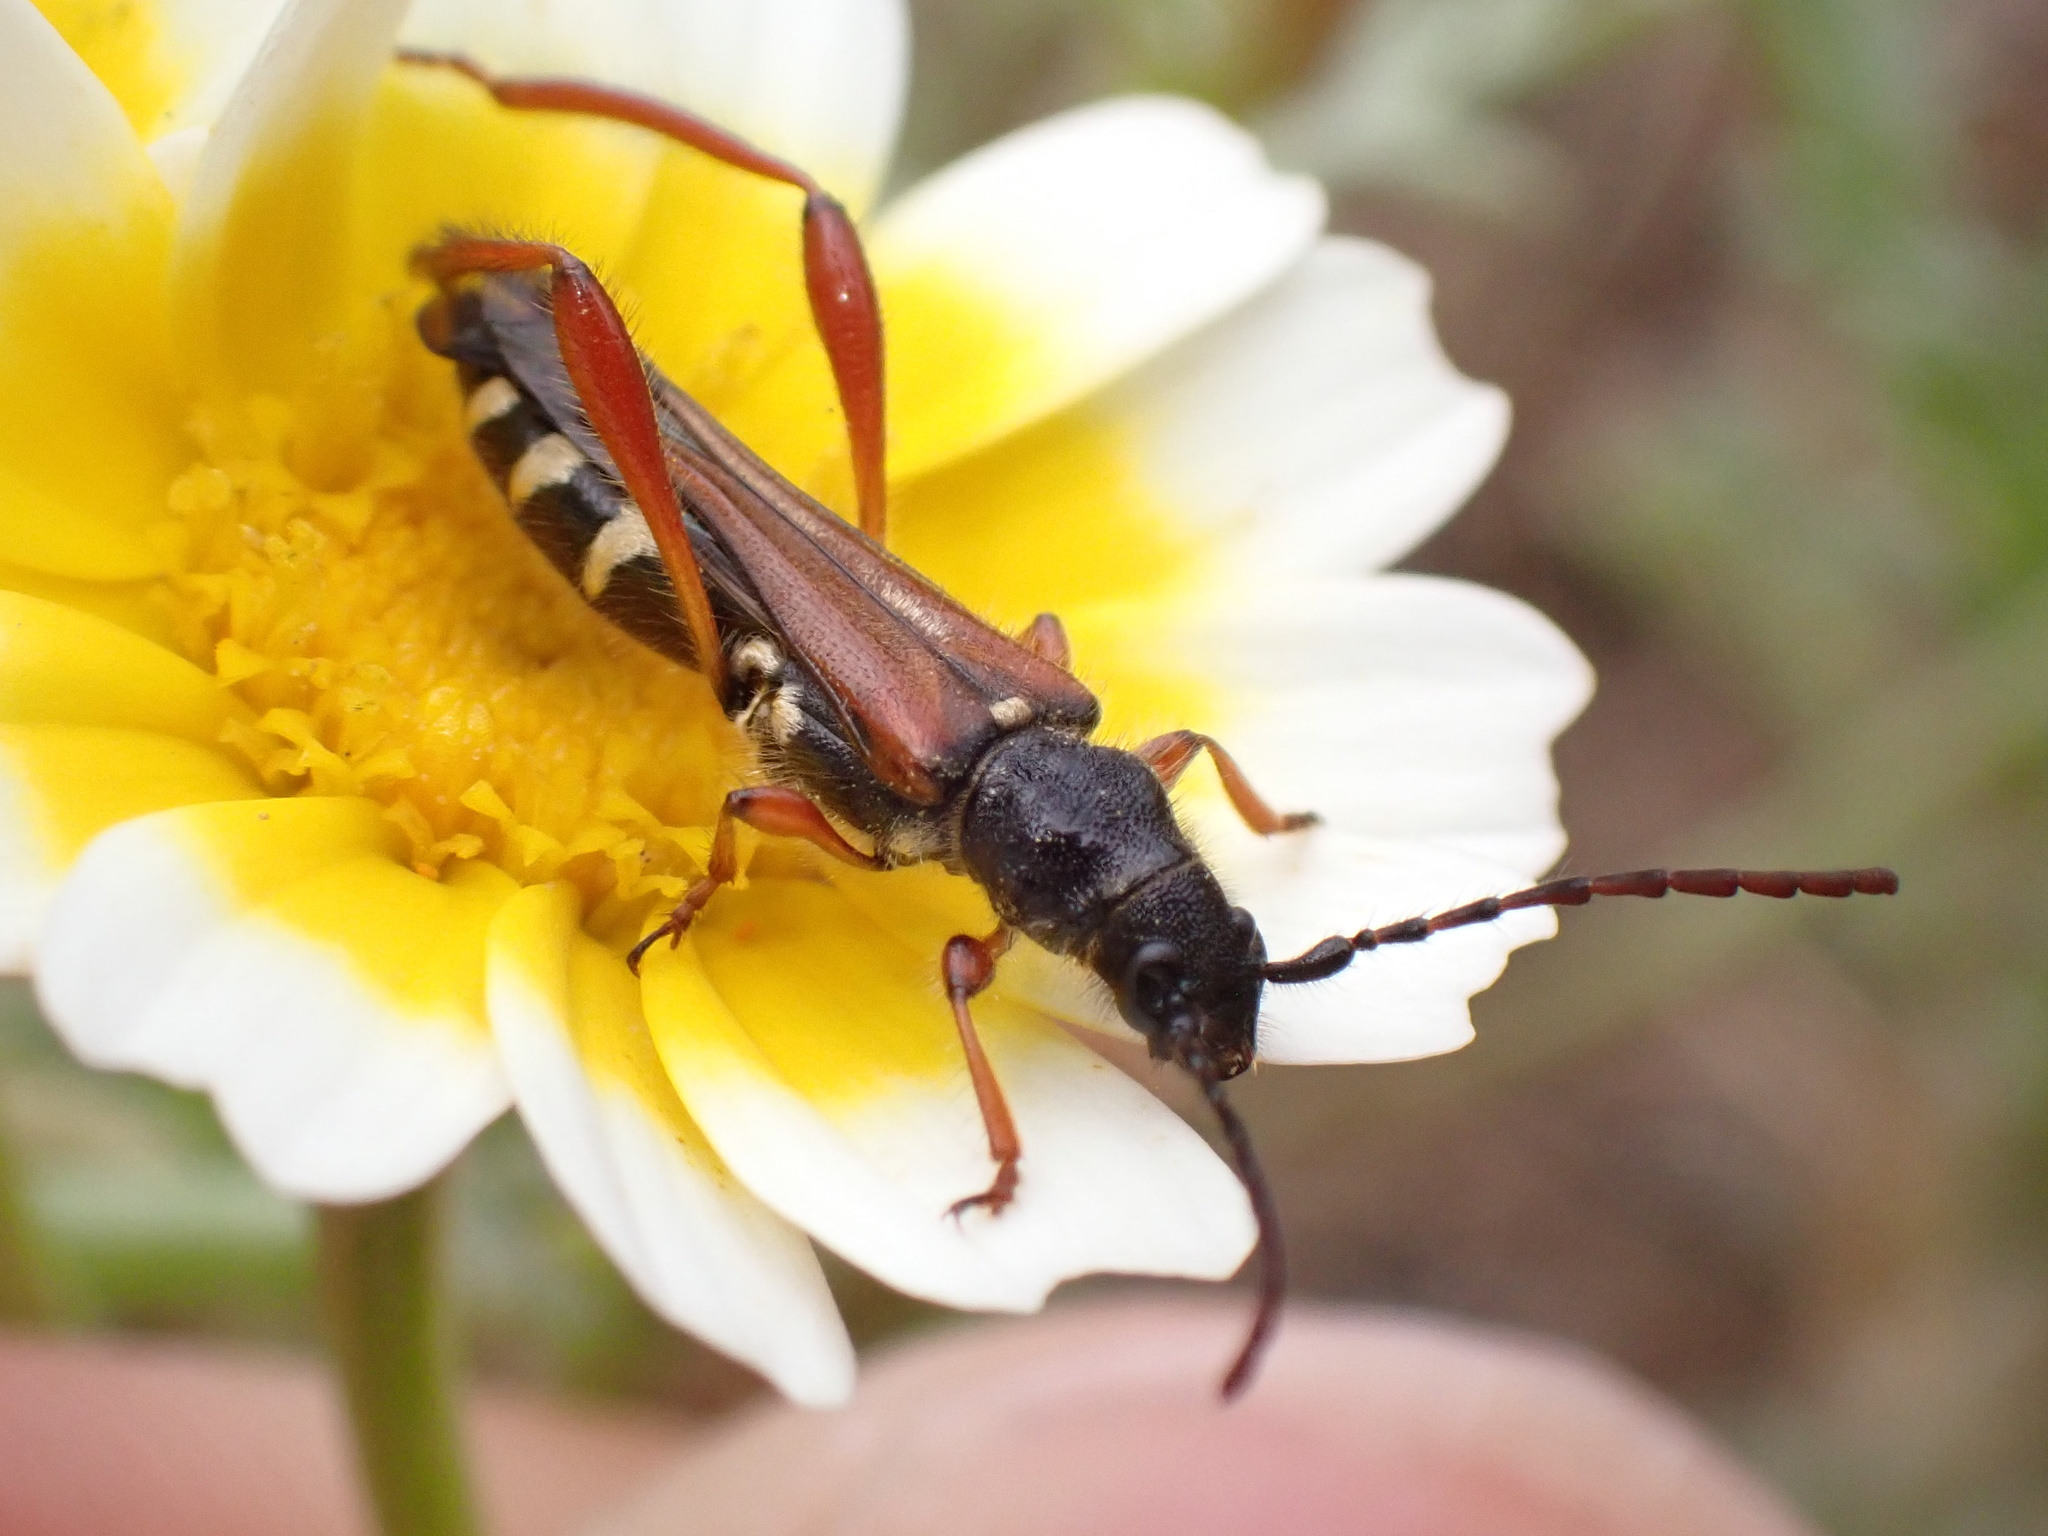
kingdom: Animalia
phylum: Arthropoda
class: Insecta
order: Coleoptera
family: Cerambycidae
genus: Stenopterus
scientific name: Stenopterus creticus
